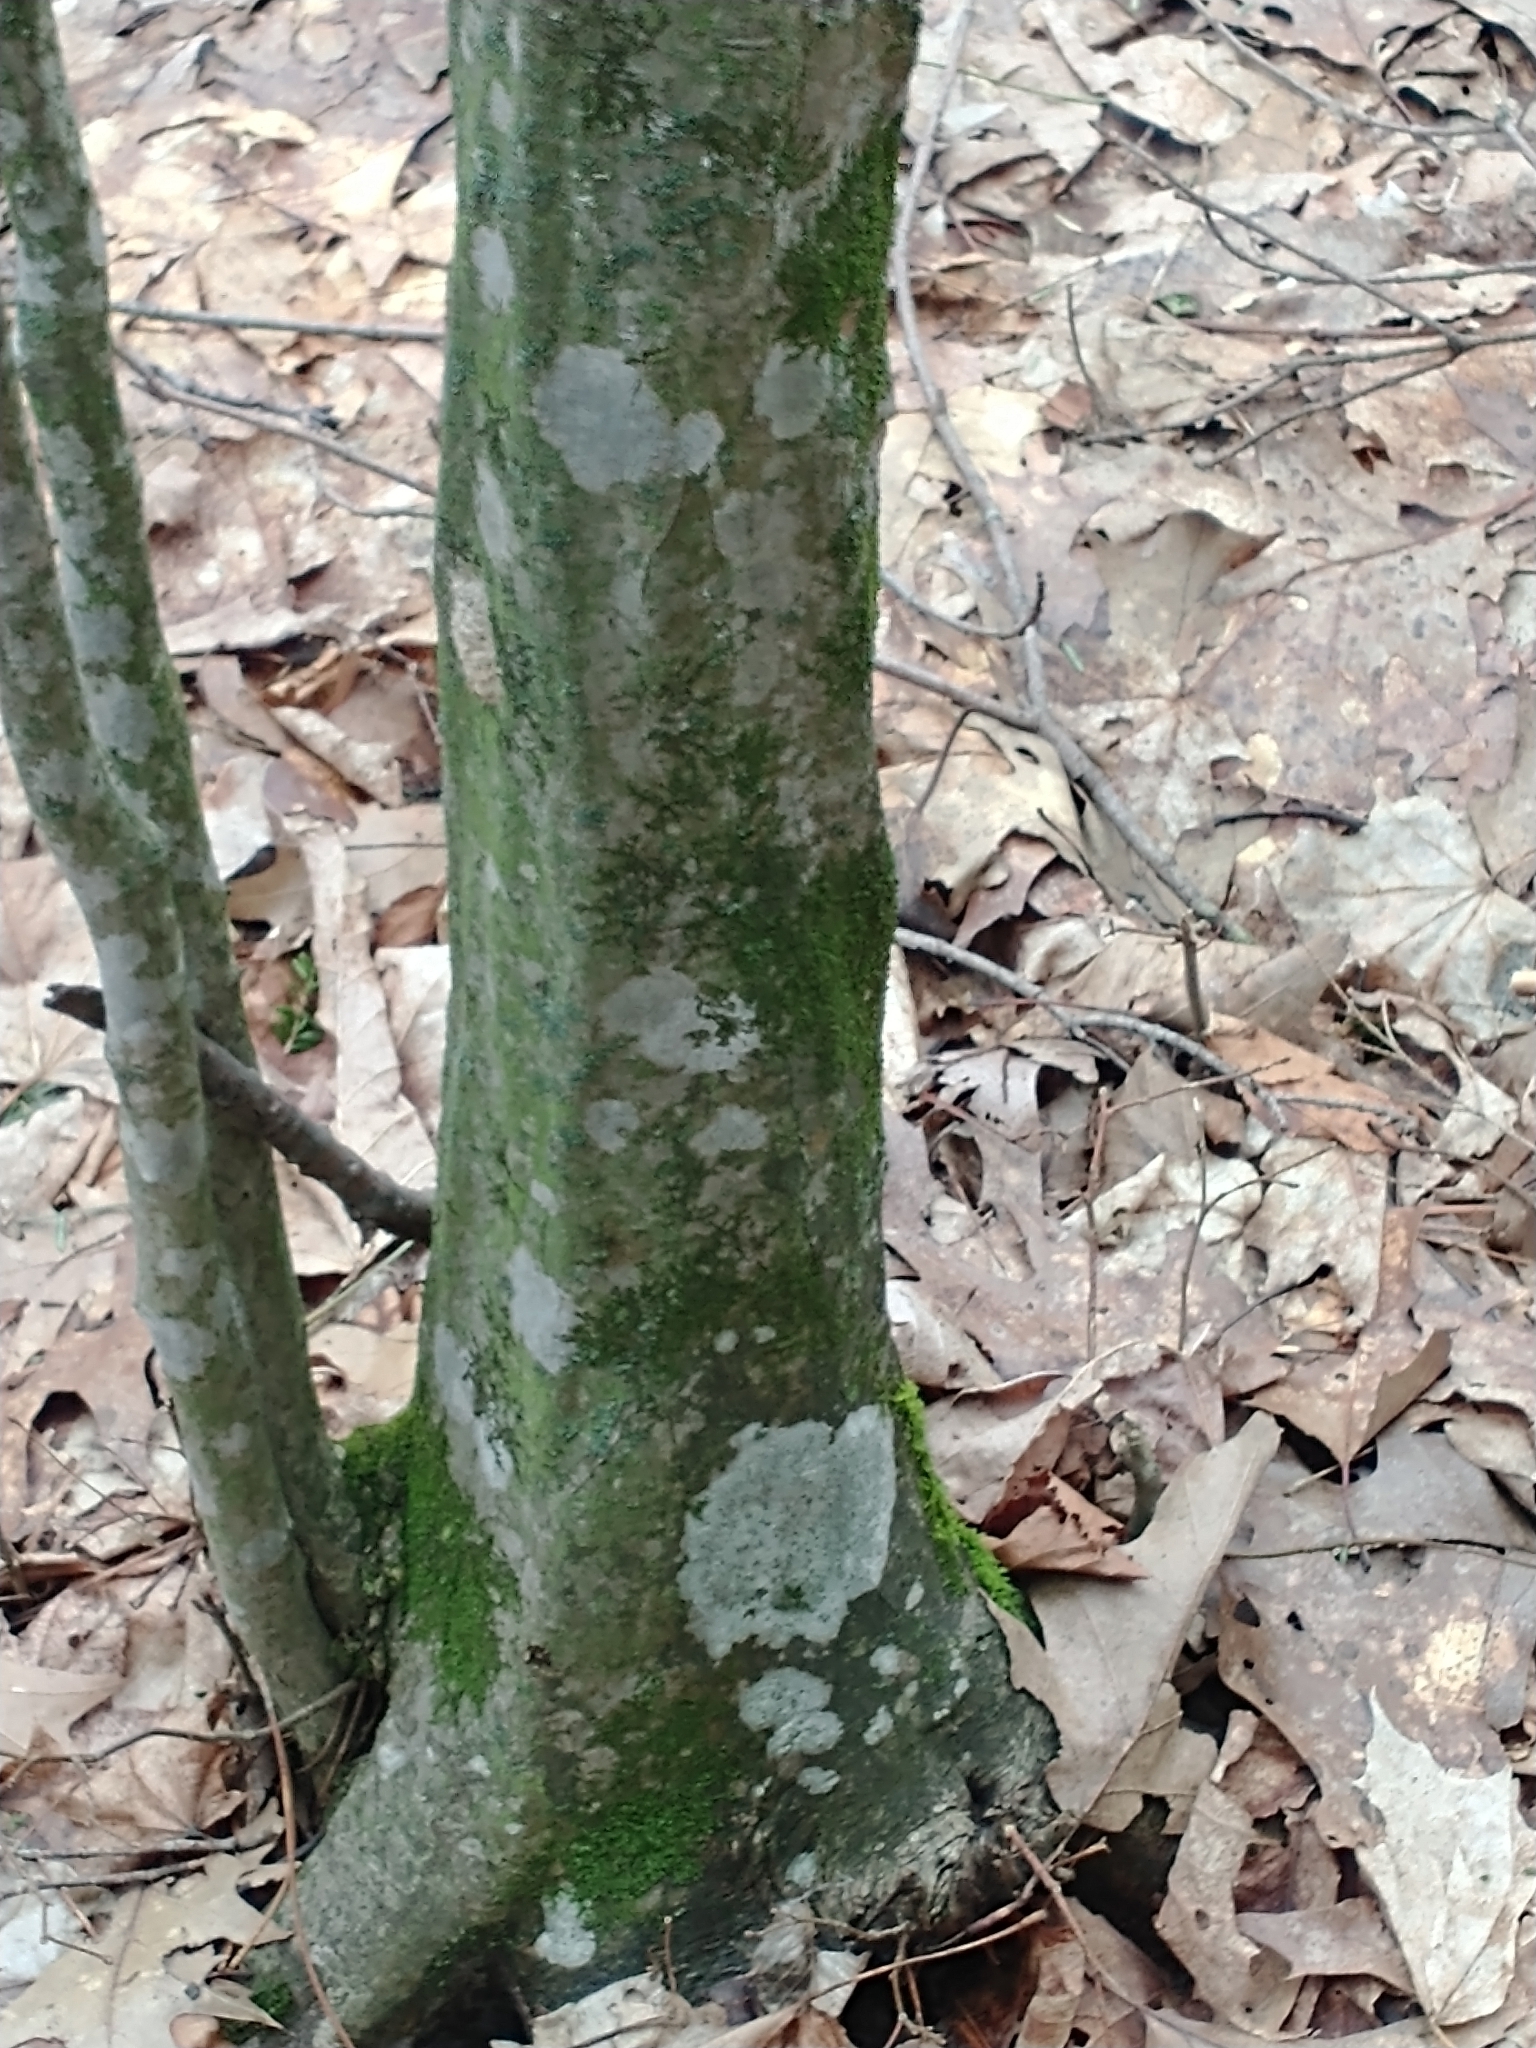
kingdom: Plantae
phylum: Tracheophyta
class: Magnoliopsida
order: Fagales
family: Betulaceae
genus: Carpinus
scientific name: Carpinus caroliniana
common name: American hornbeam
